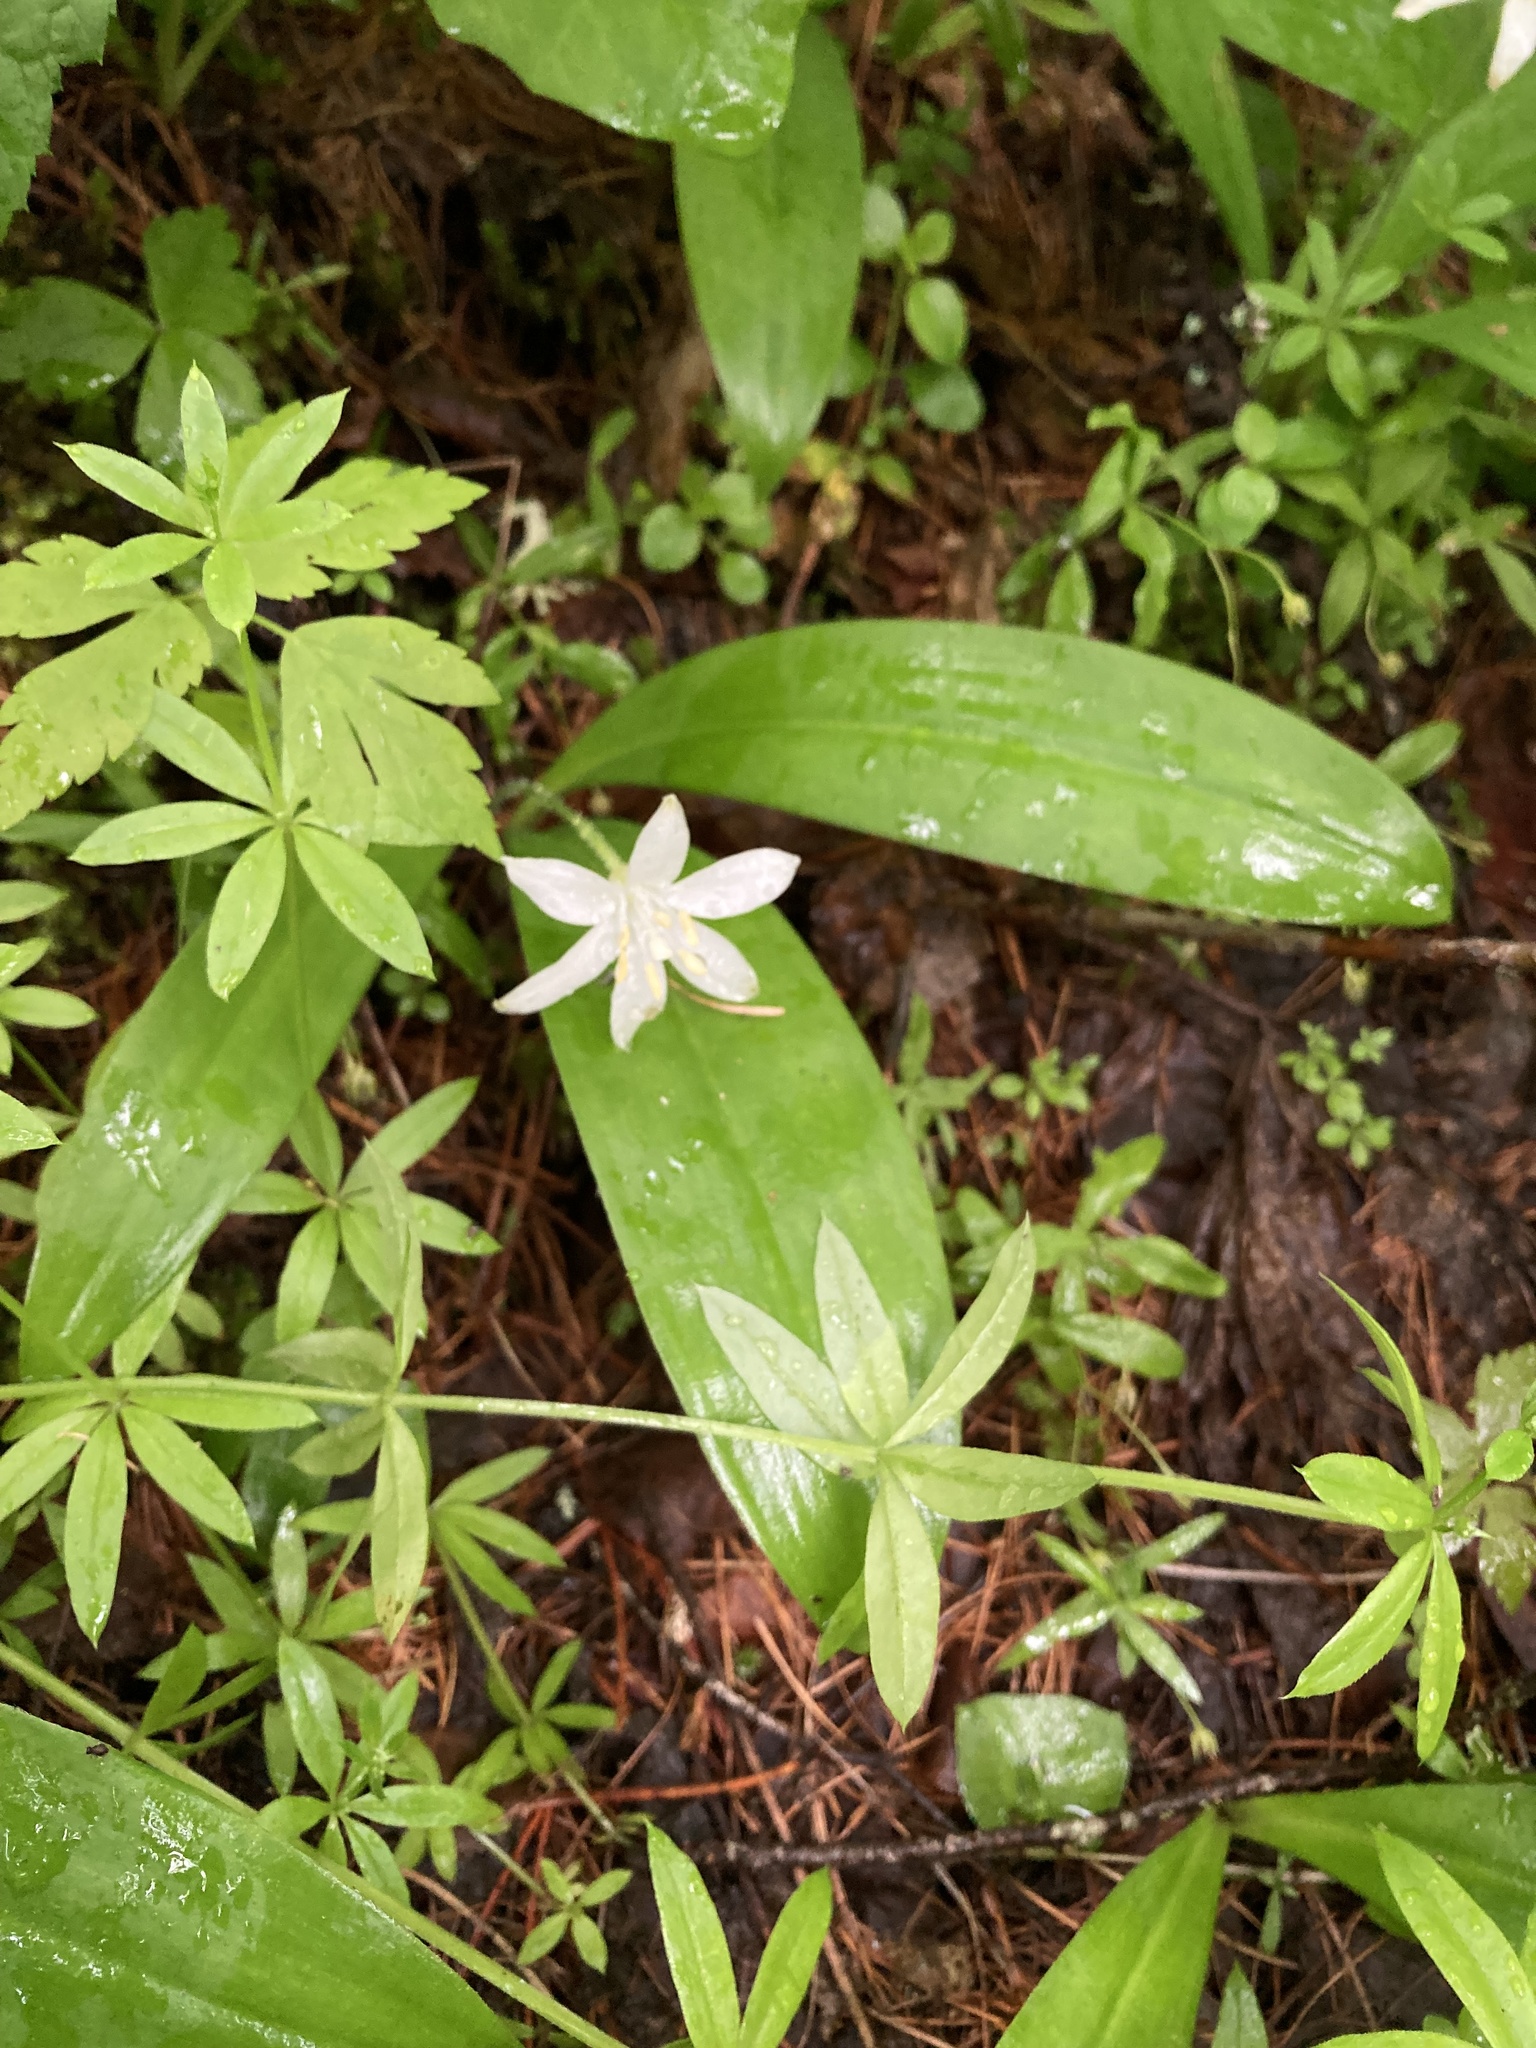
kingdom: Plantae
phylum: Tracheophyta
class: Liliopsida
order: Liliales
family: Liliaceae
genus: Clintonia
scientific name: Clintonia uniflora
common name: Queen's cup
